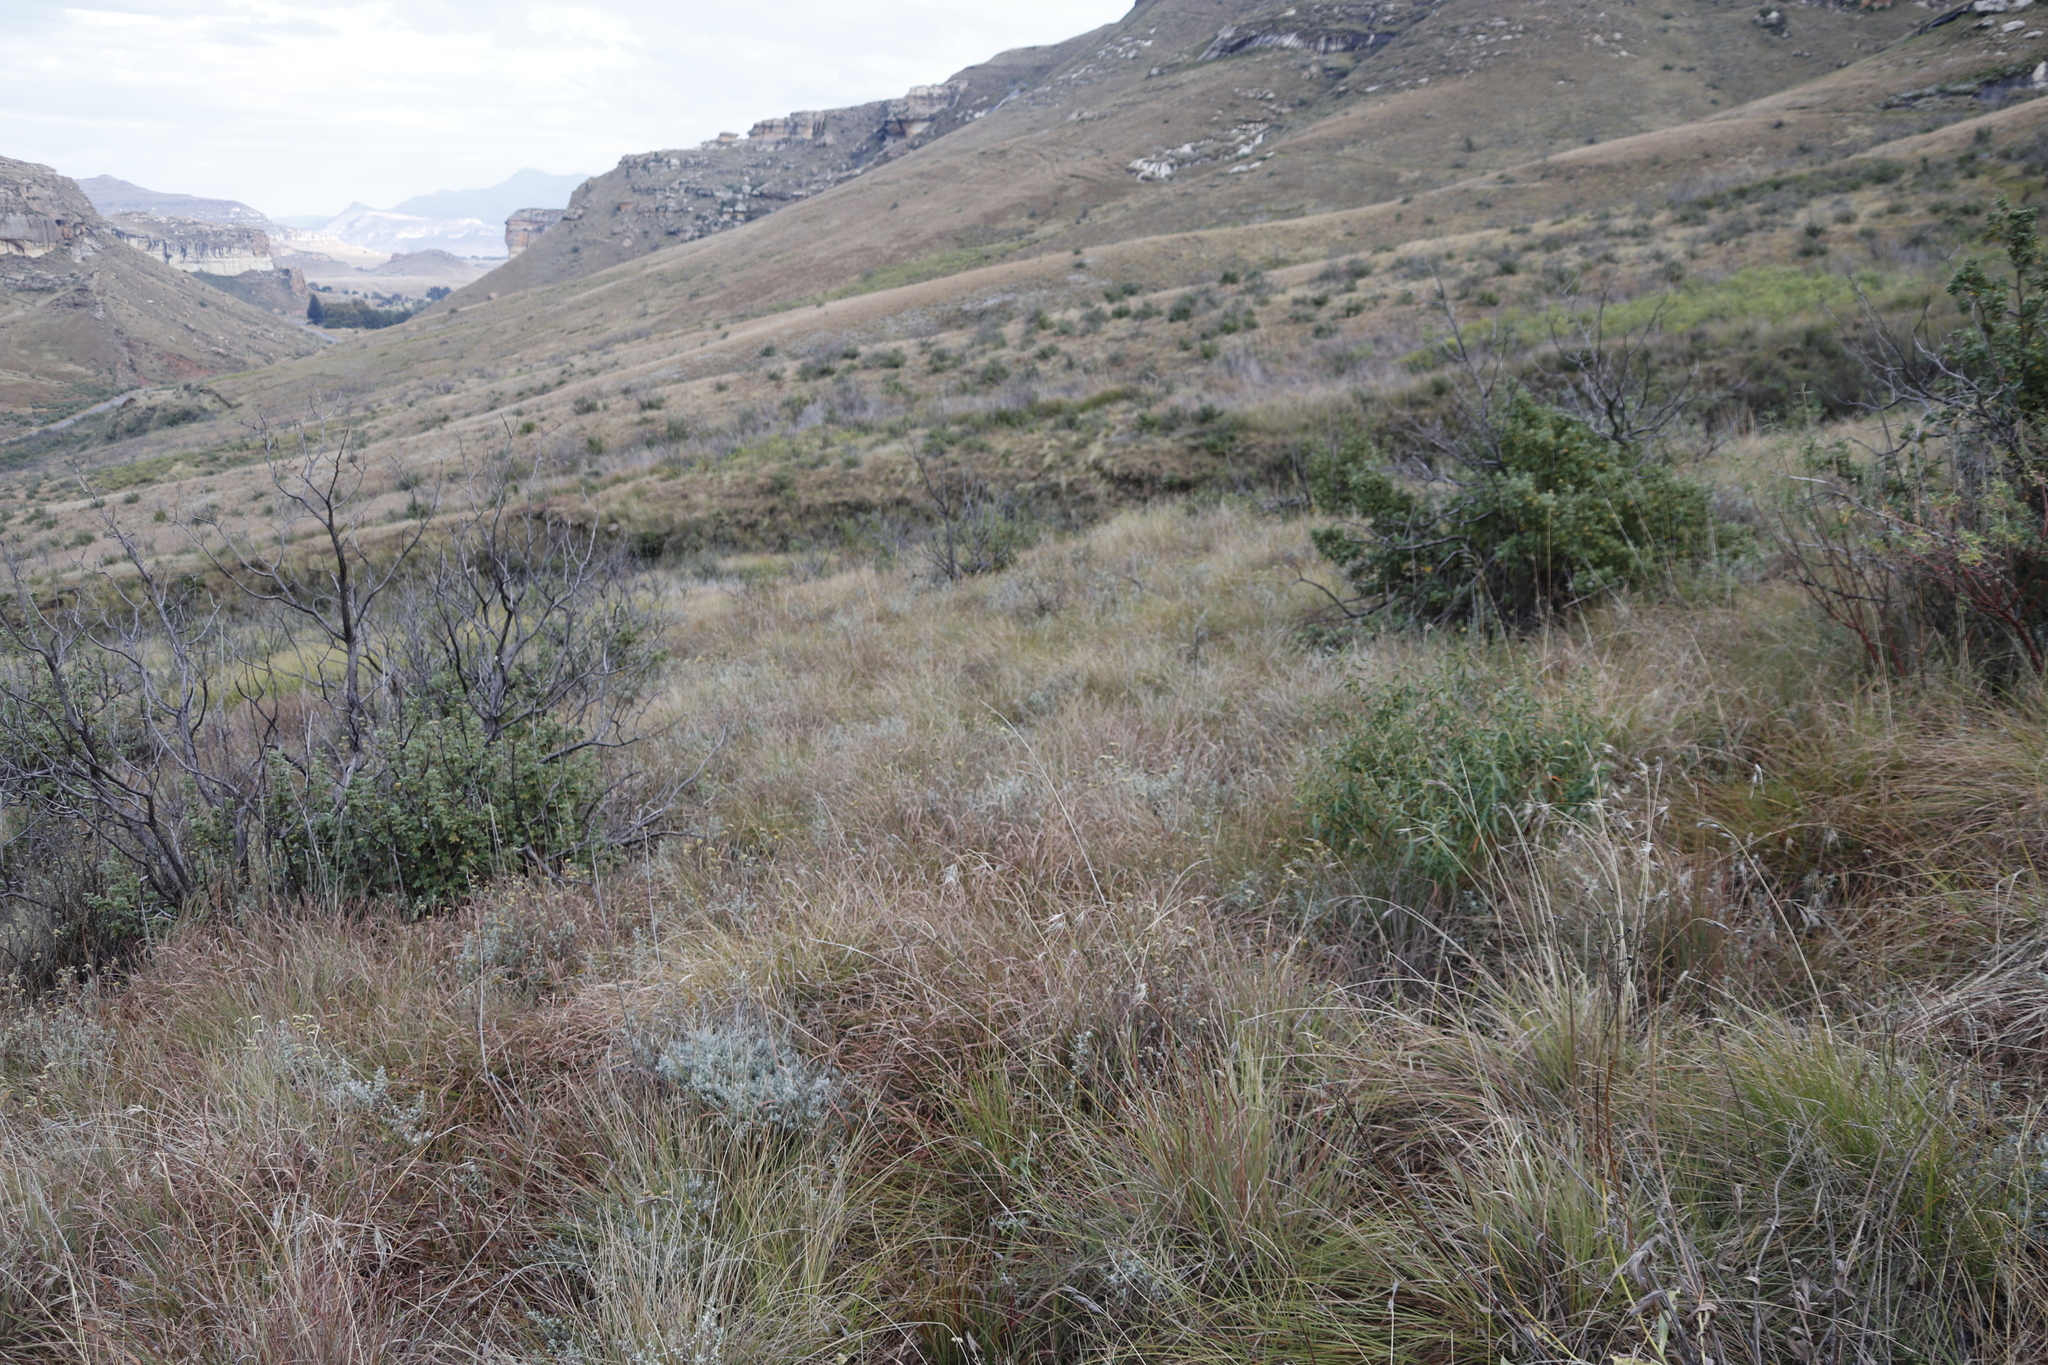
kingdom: Plantae
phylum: Tracheophyta
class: Liliopsida
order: Poales
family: Poaceae
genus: Themeda
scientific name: Themeda triandra
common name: Kangaroo grass
